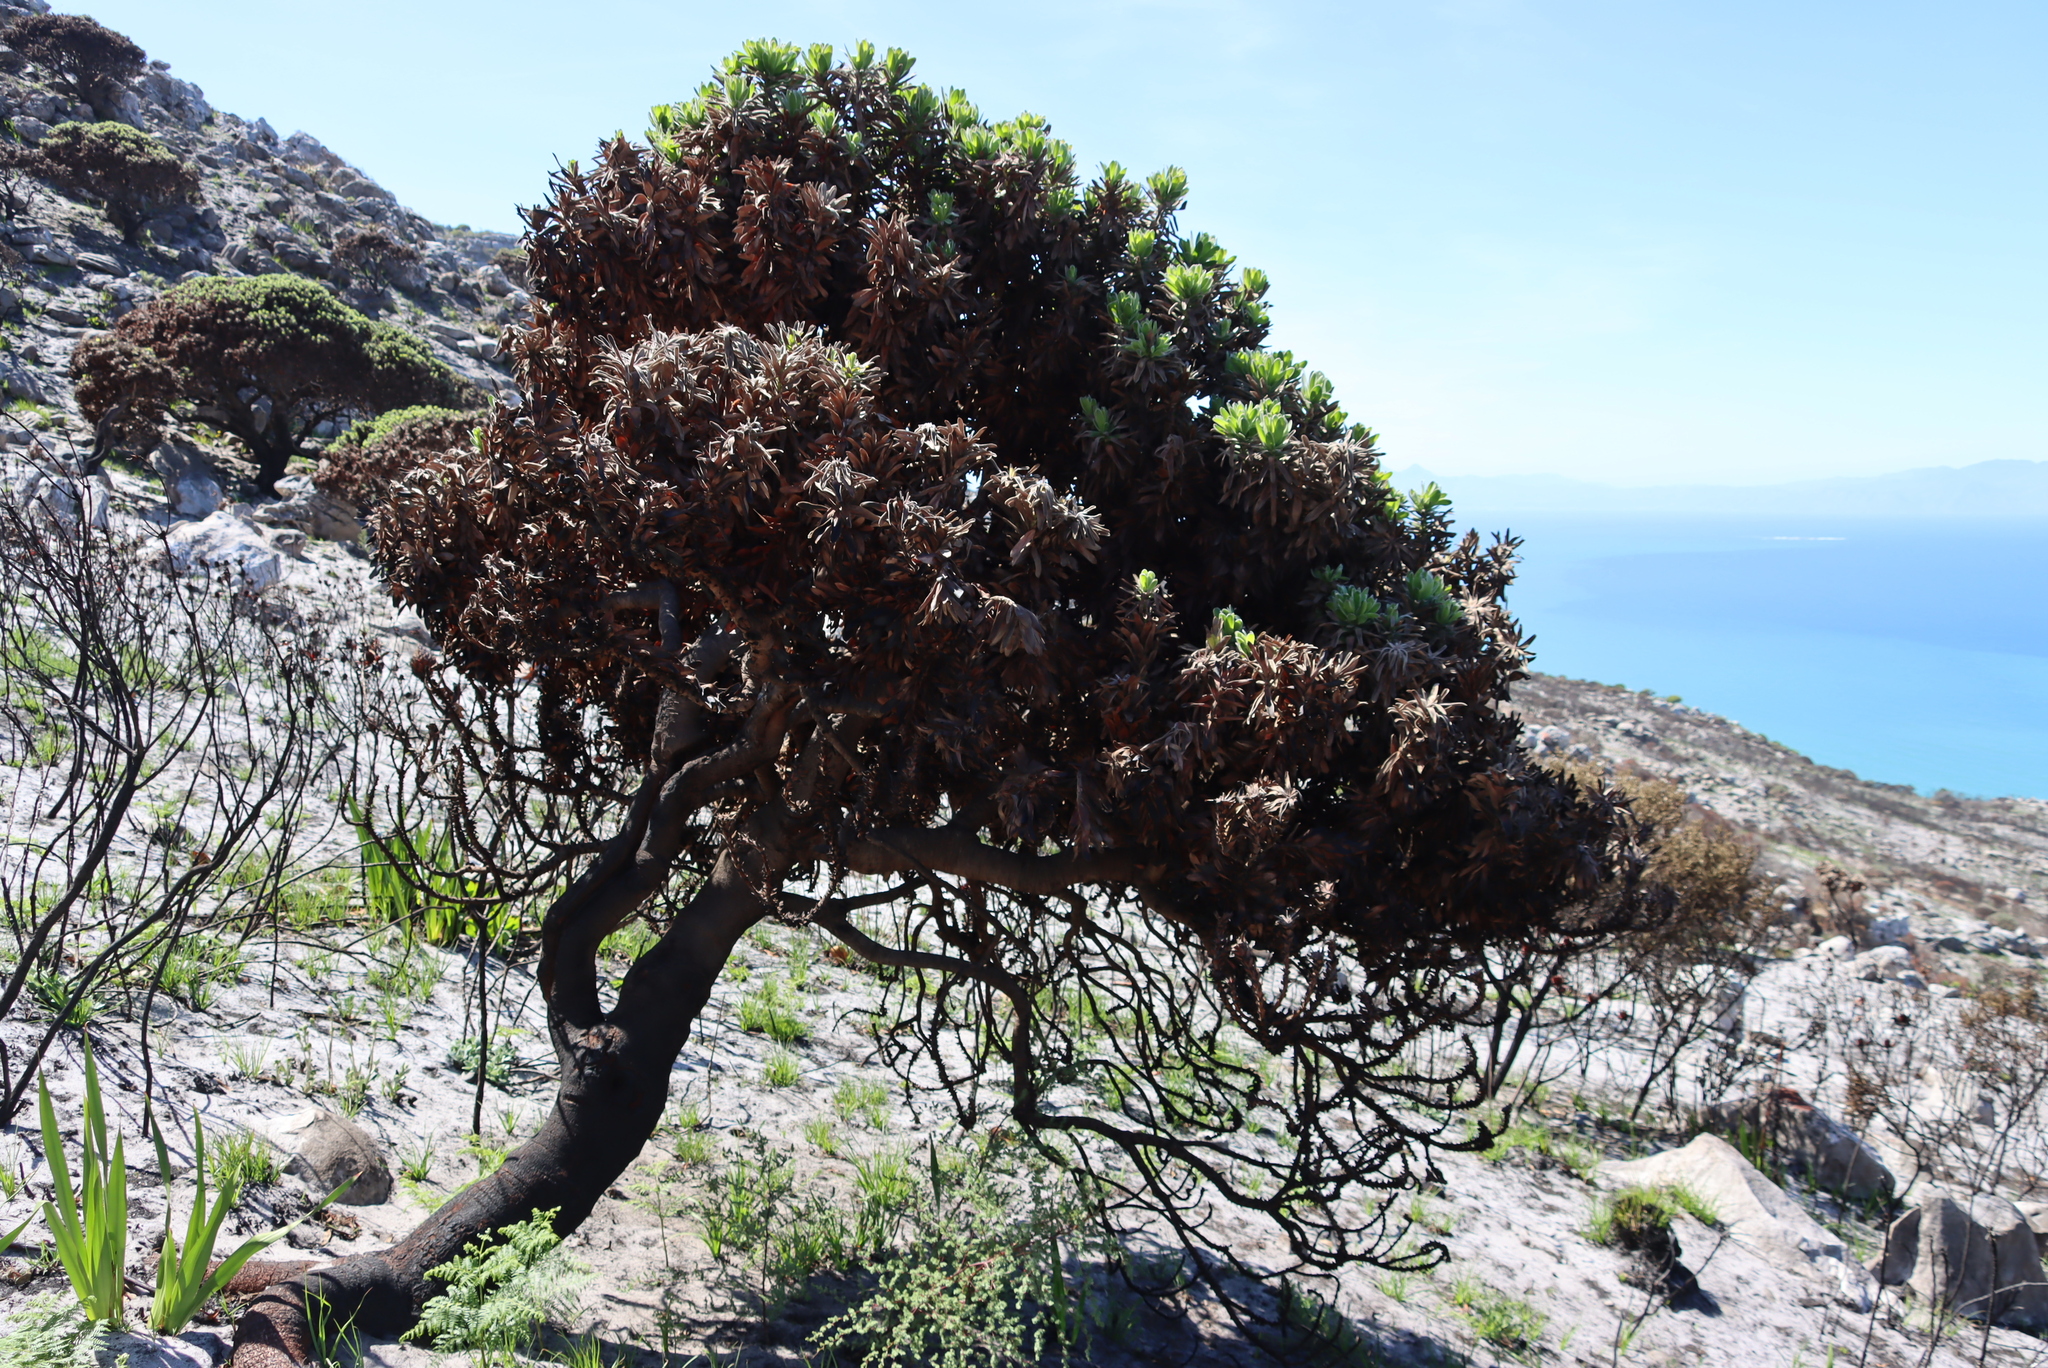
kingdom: Plantae
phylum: Tracheophyta
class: Magnoliopsida
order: Proteales
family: Proteaceae
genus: Mimetes
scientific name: Mimetes fimbriifolius
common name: Fringed bottlebrush
